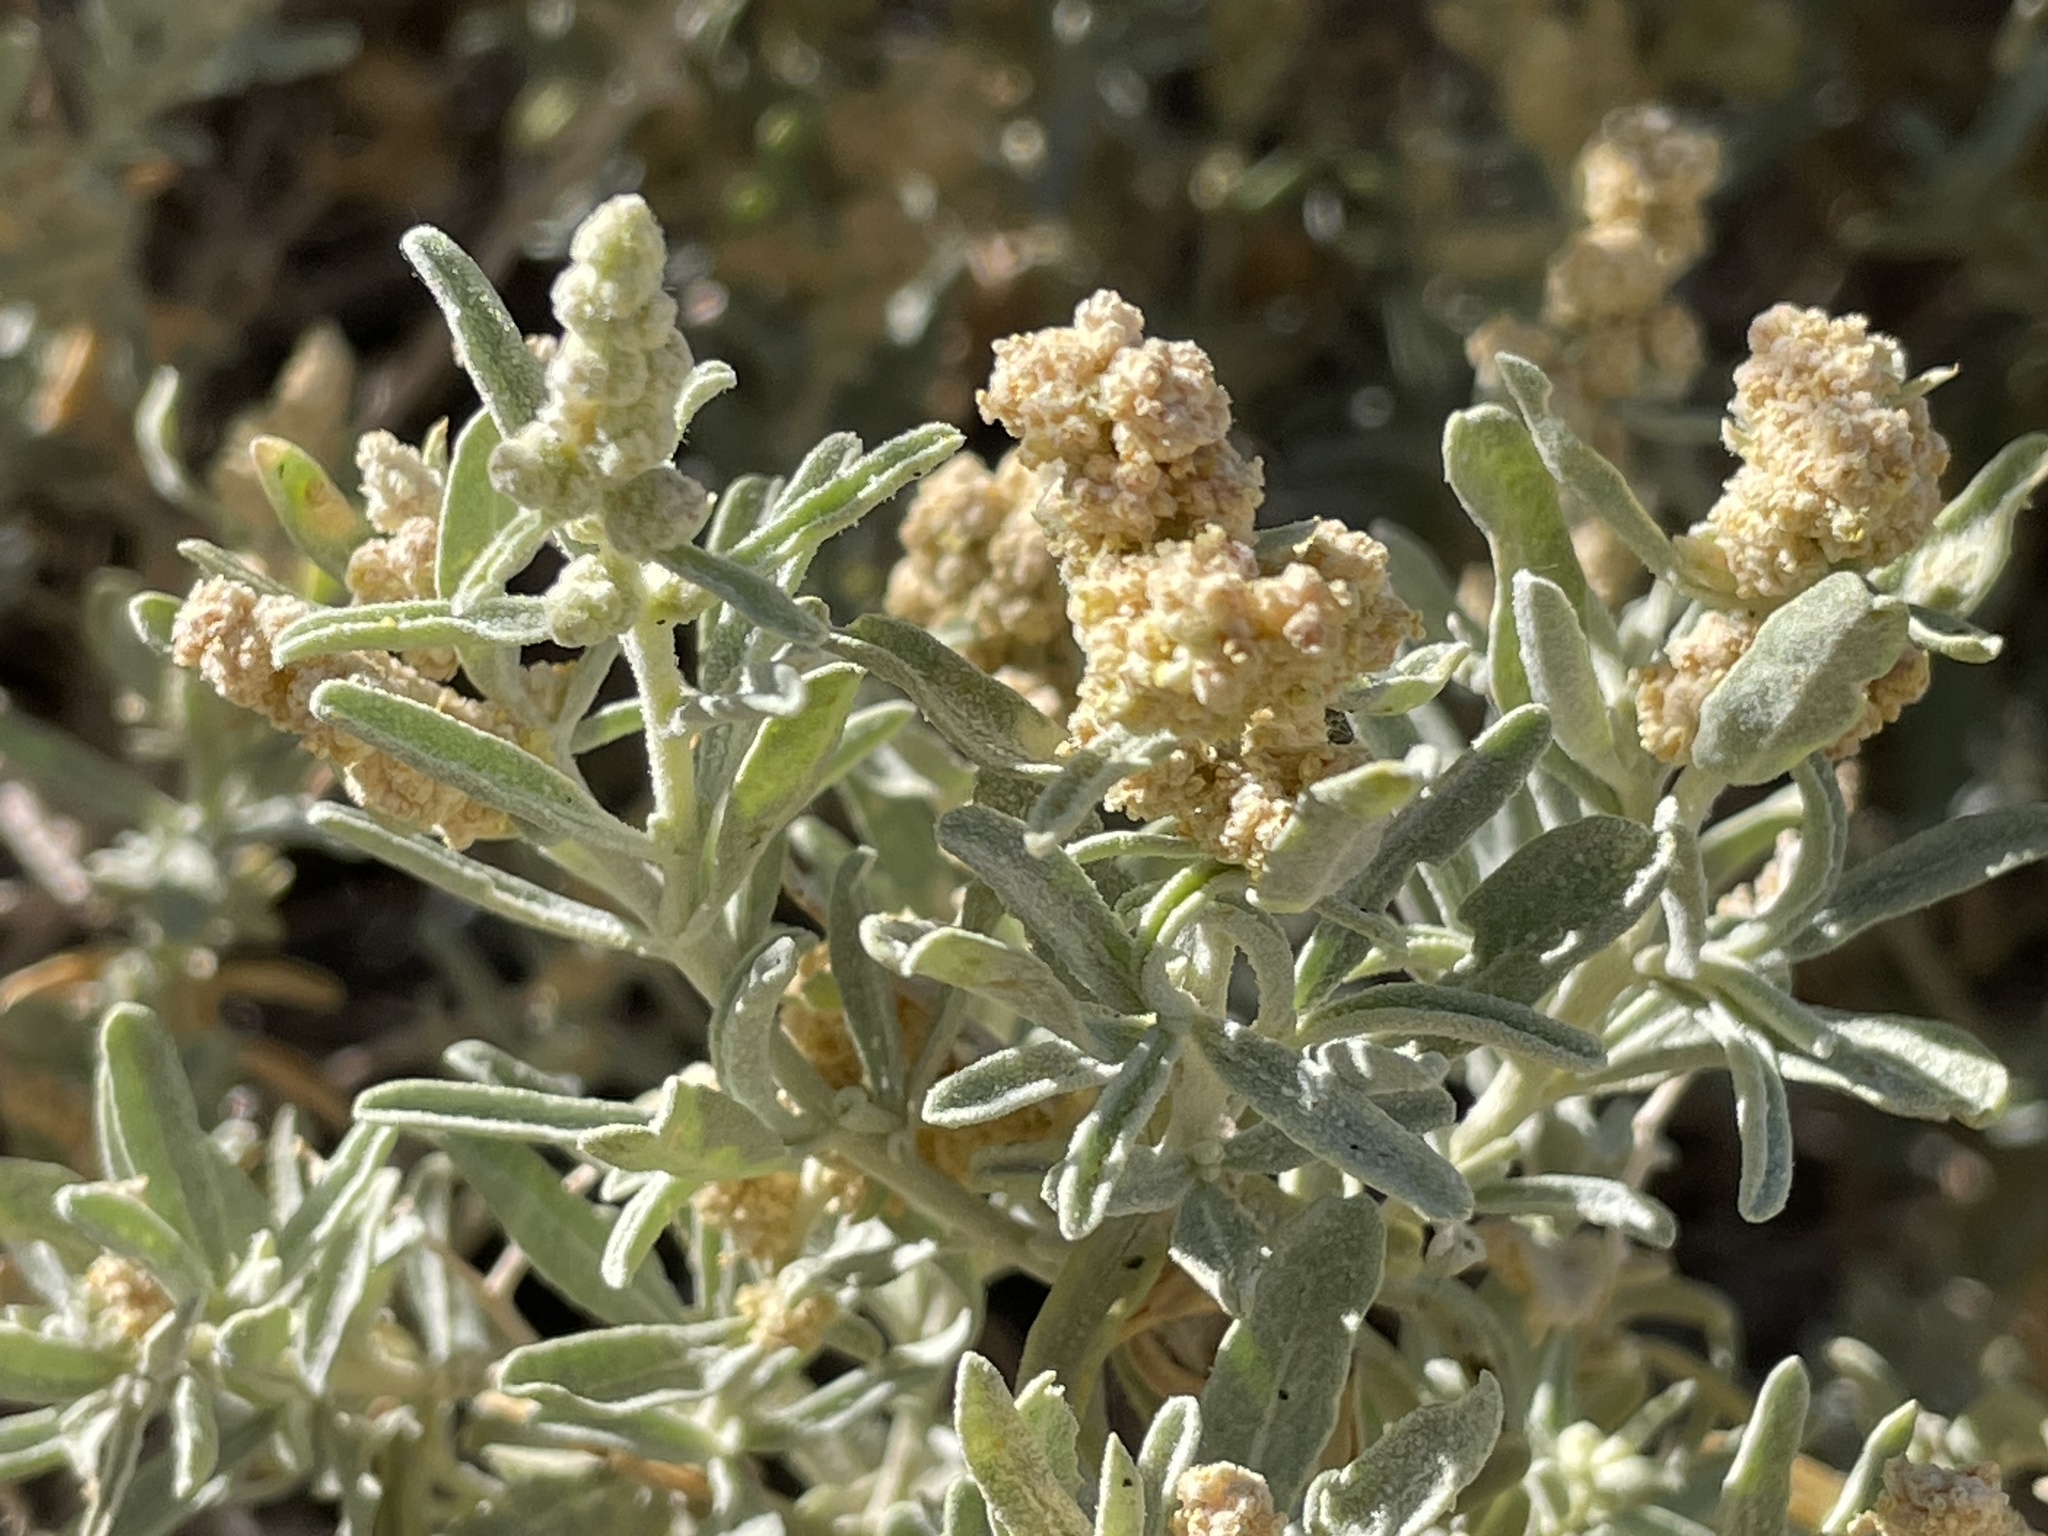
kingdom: Plantae
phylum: Tracheophyta
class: Magnoliopsida
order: Caryophyllales
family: Amaranthaceae
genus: Atriplex
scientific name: Atriplex canescens
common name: Four-wing saltbush
